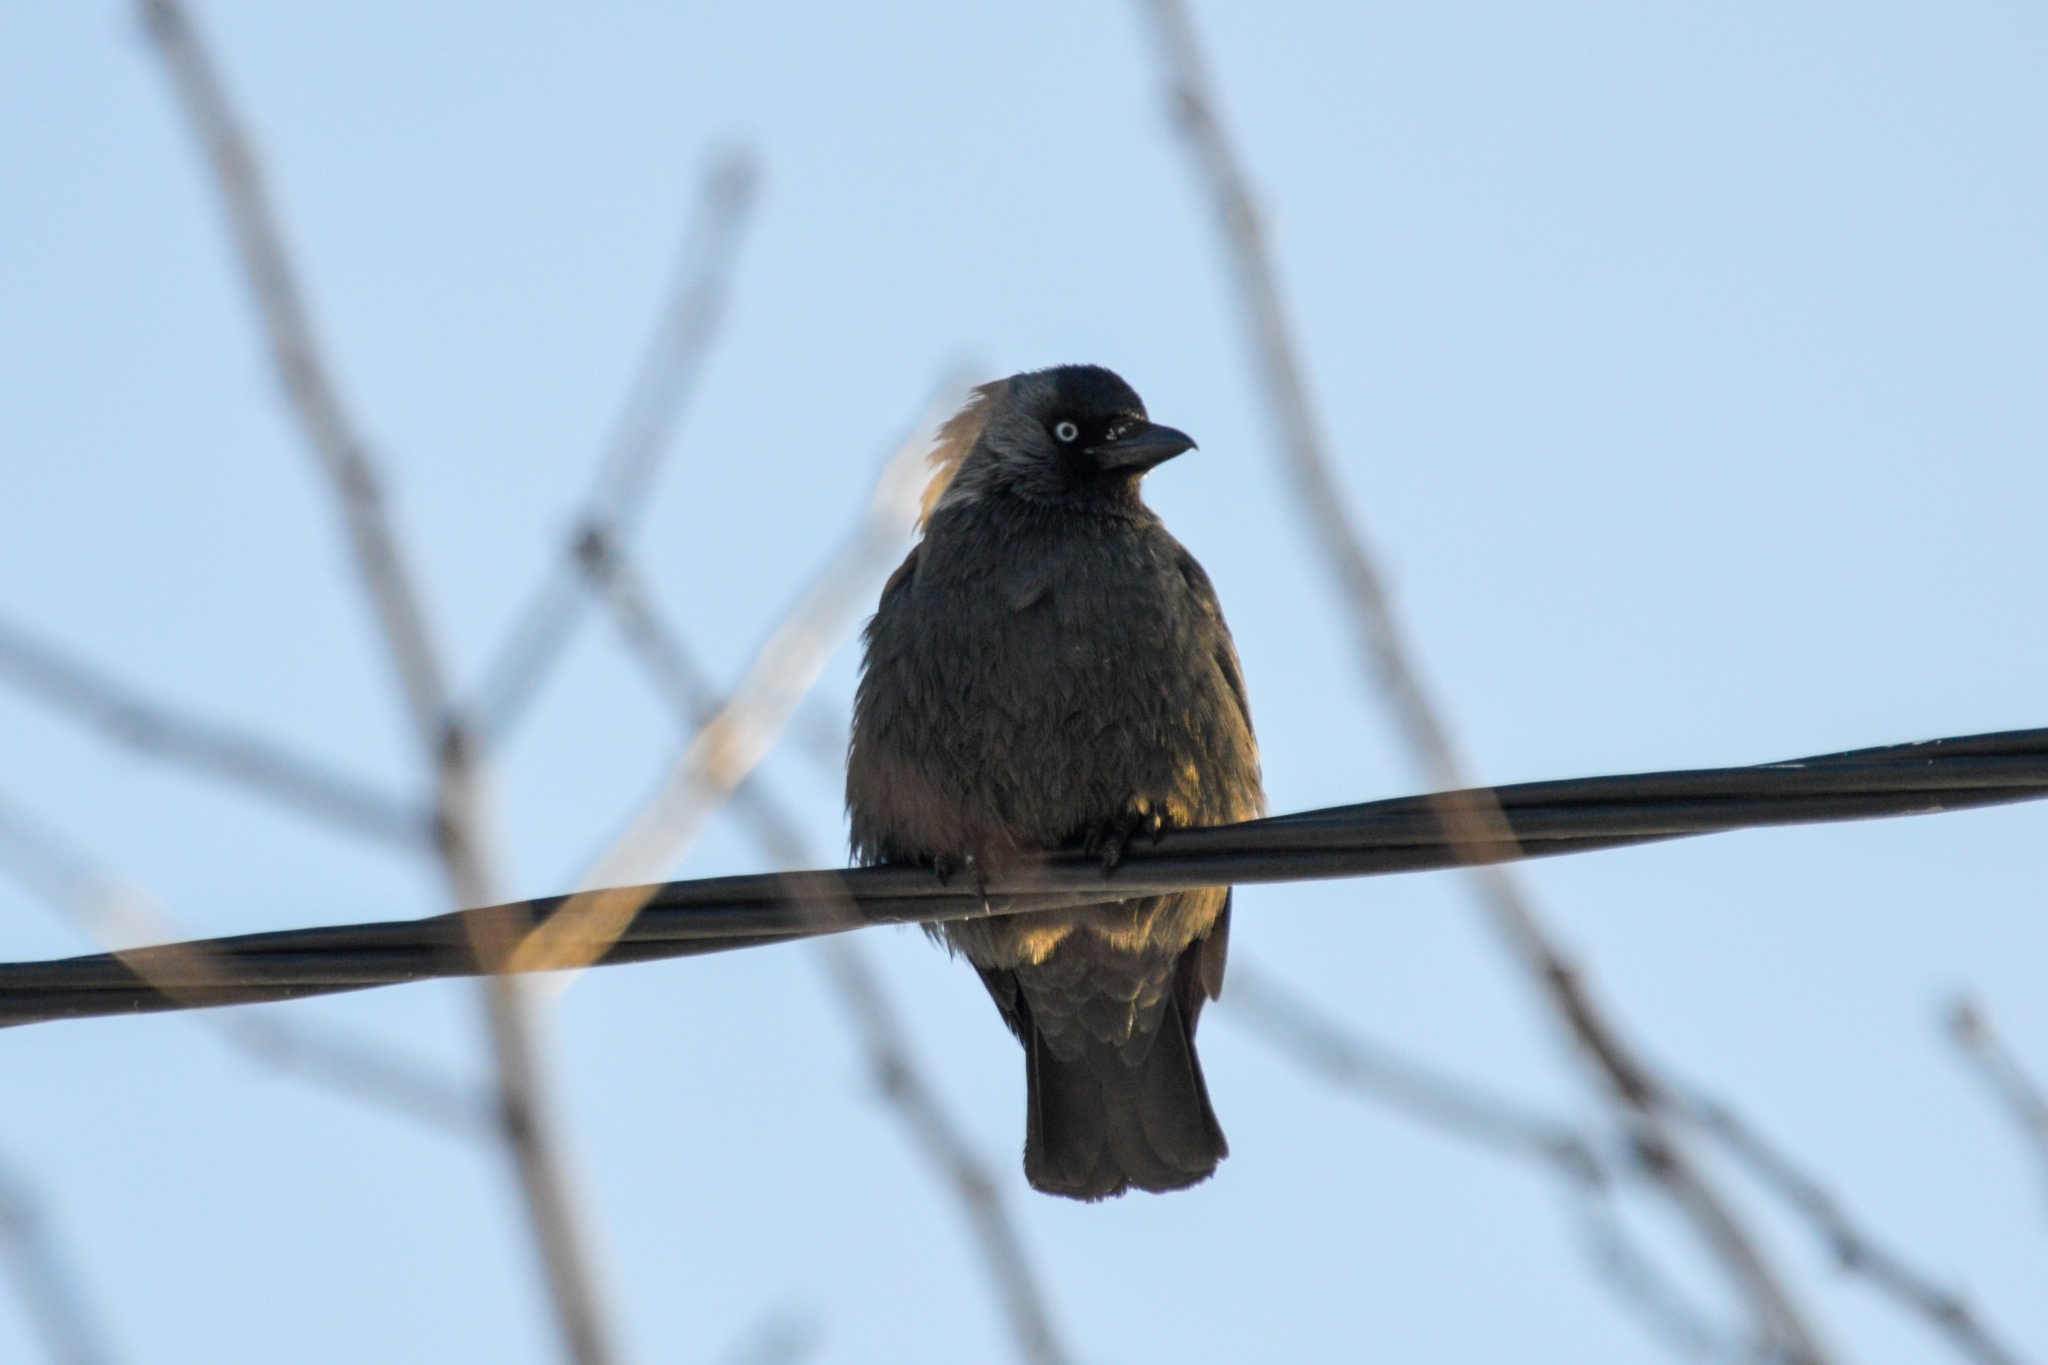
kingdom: Animalia
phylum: Chordata
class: Aves
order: Passeriformes
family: Corvidae
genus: Coloeus
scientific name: Coloeus monedula
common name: Western jackdaw
